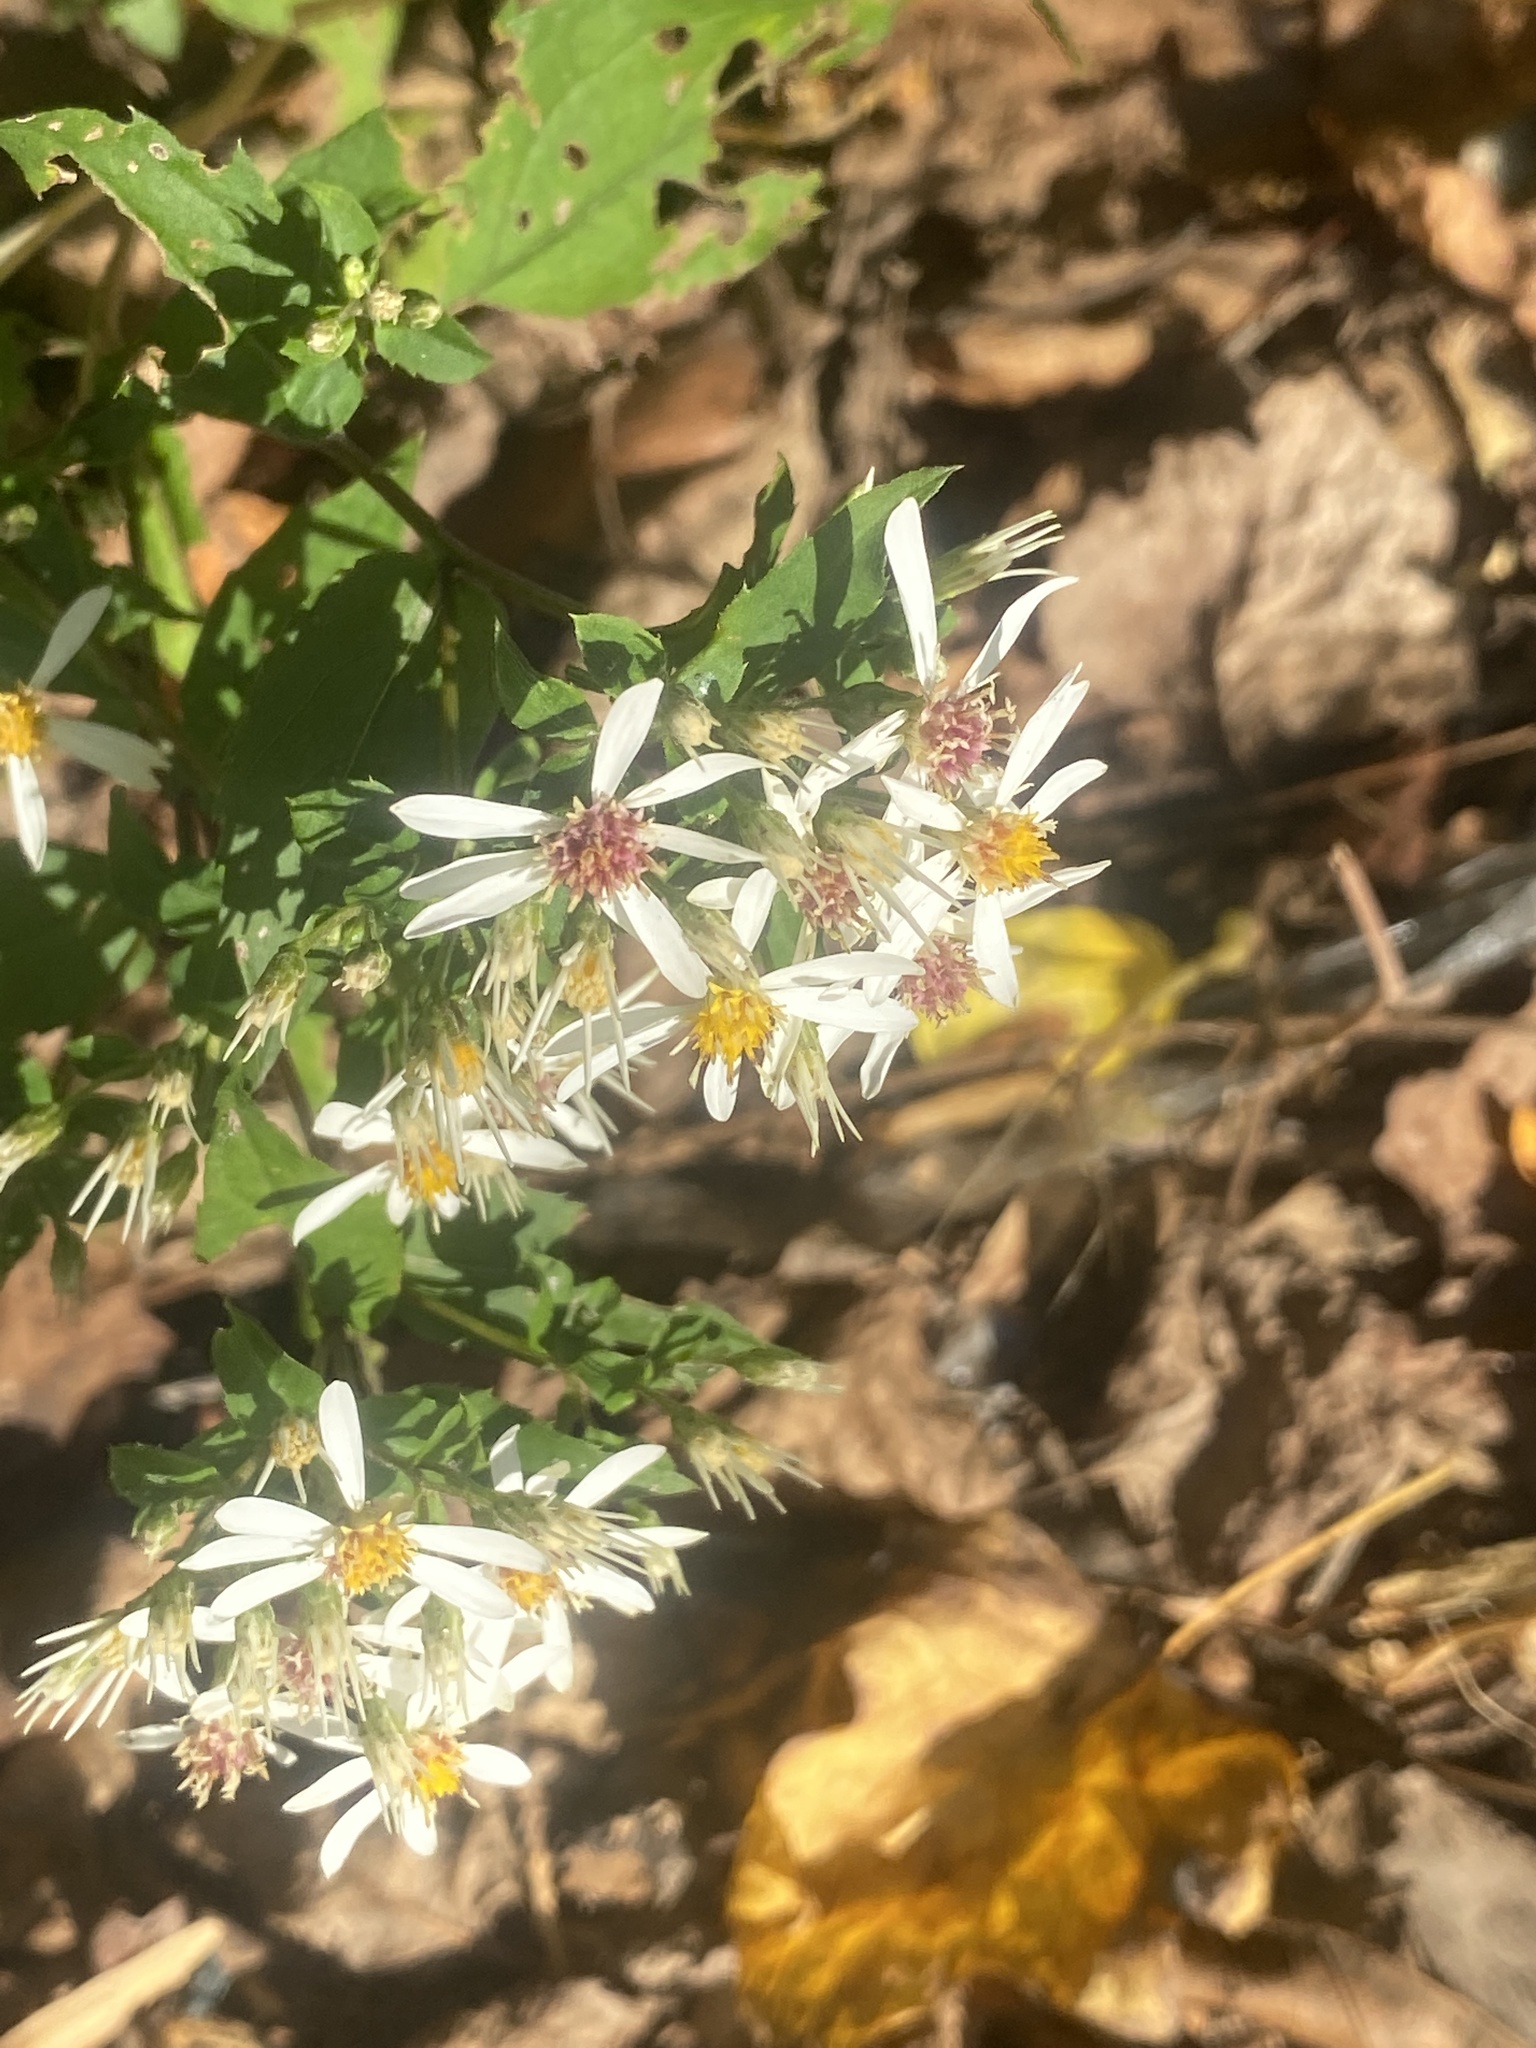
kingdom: Plantae
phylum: Tracheophyta
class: Magnoliopsida
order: Asterales
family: Asteraceae
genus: Eurybia
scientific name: Eurybia divaricata
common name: White wood aster
